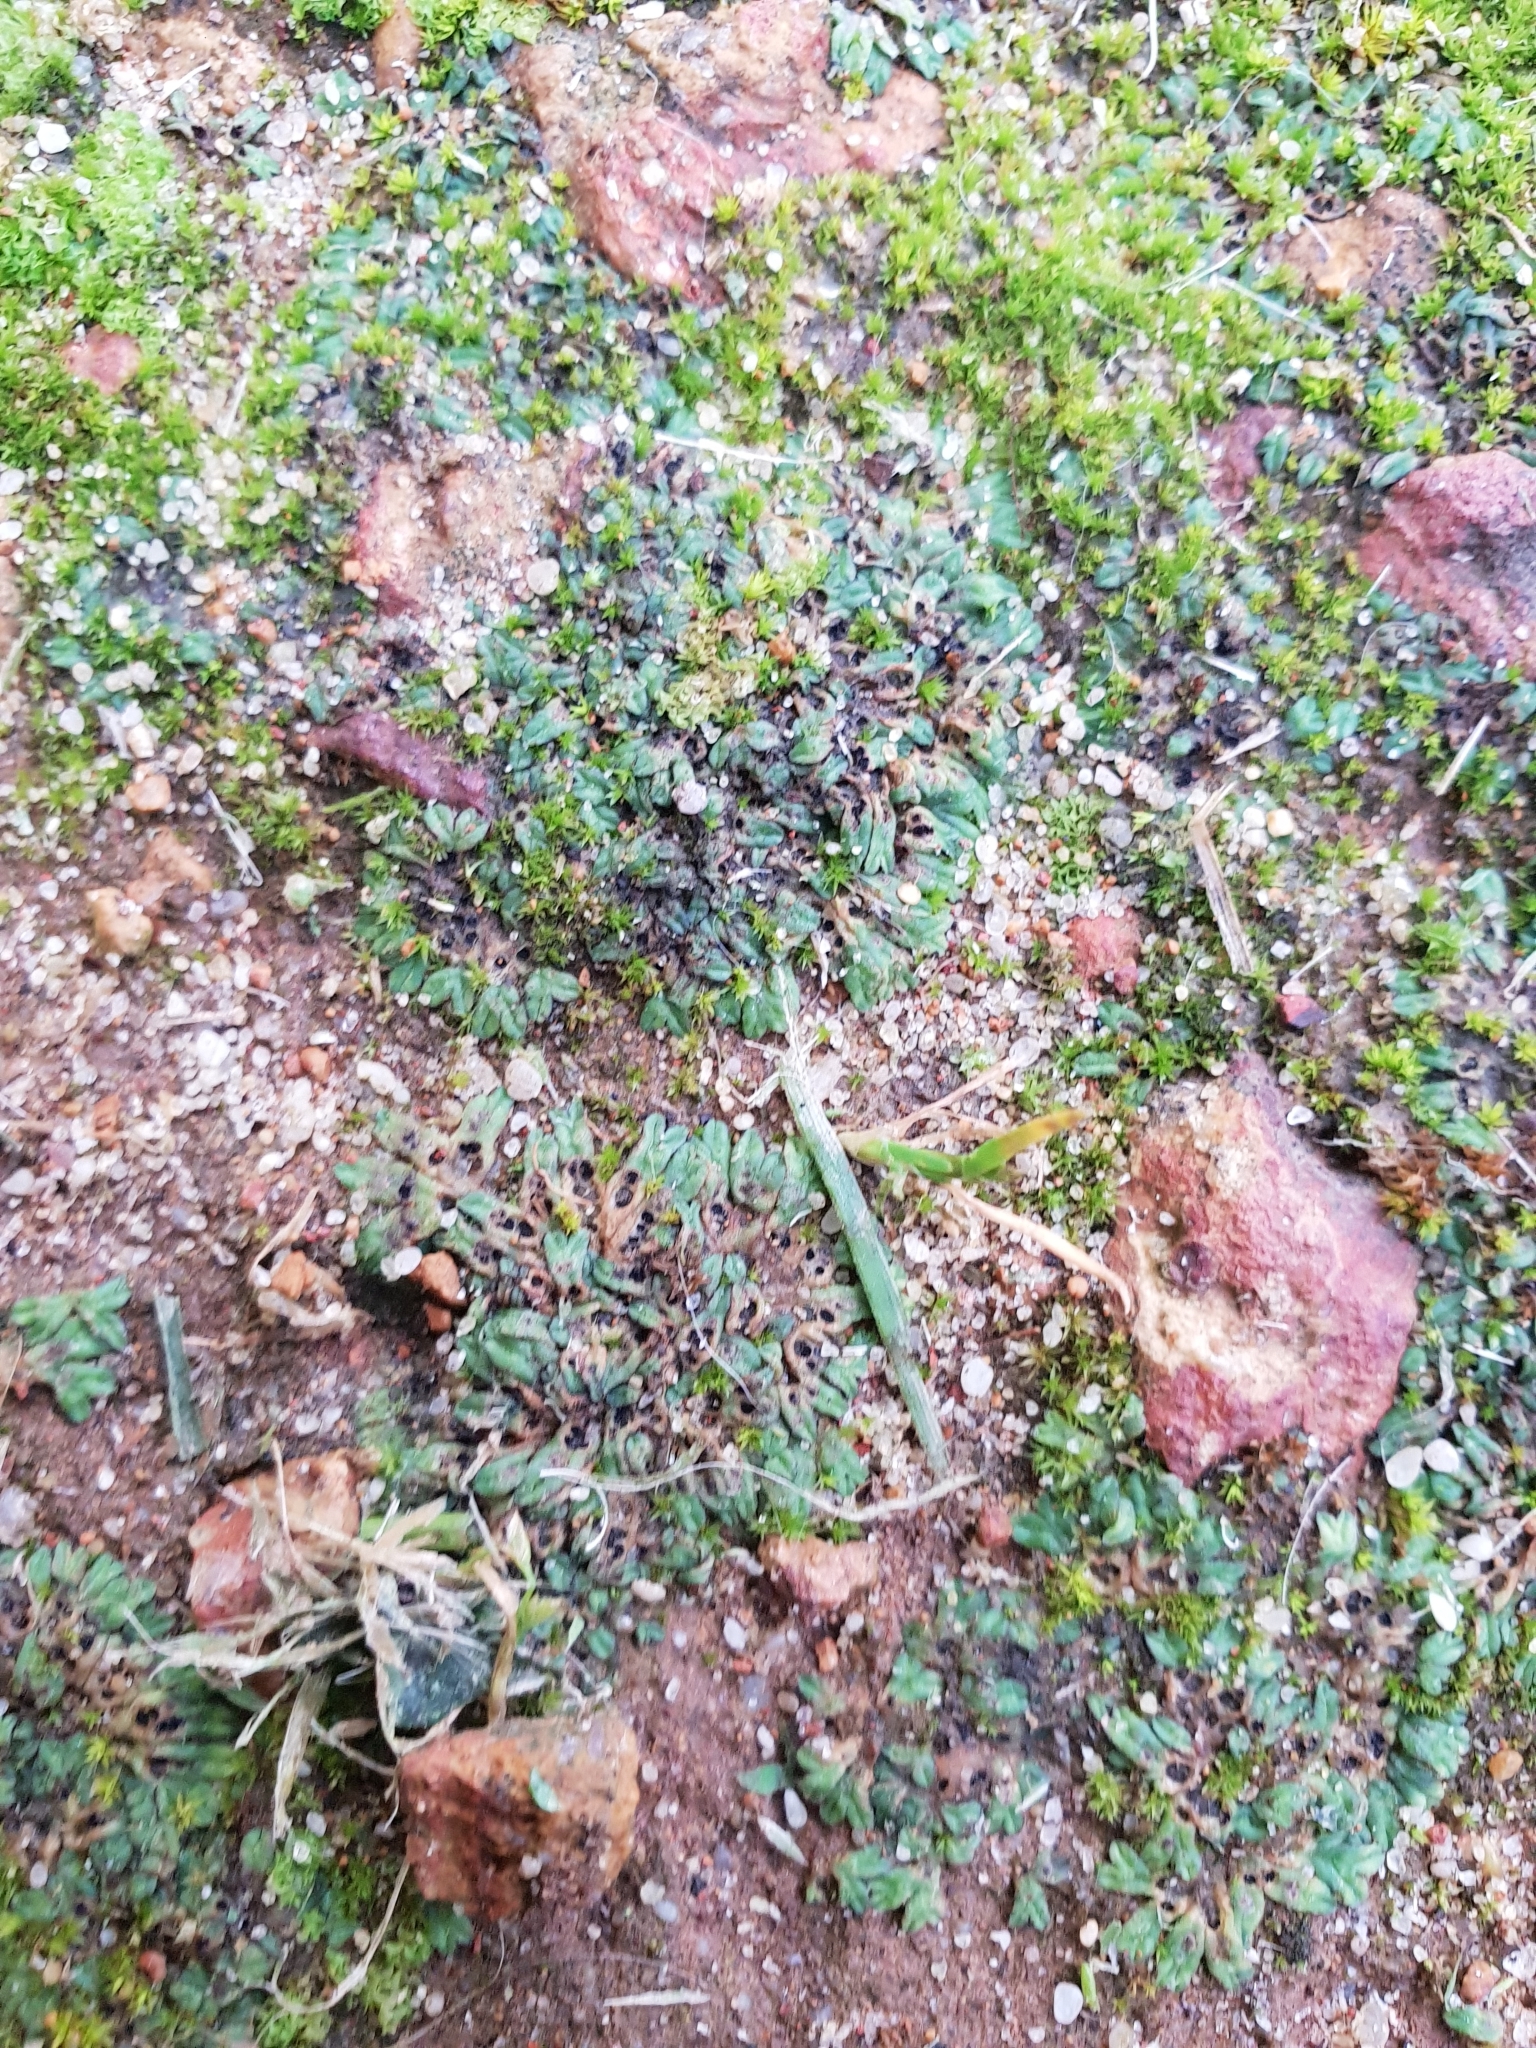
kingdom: Plantae
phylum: Marchantiophyta
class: Marchantiopsida
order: Marchantiales
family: Ricciaceae
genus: Riccia
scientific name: Riccia nigrella
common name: Black crystalwort
